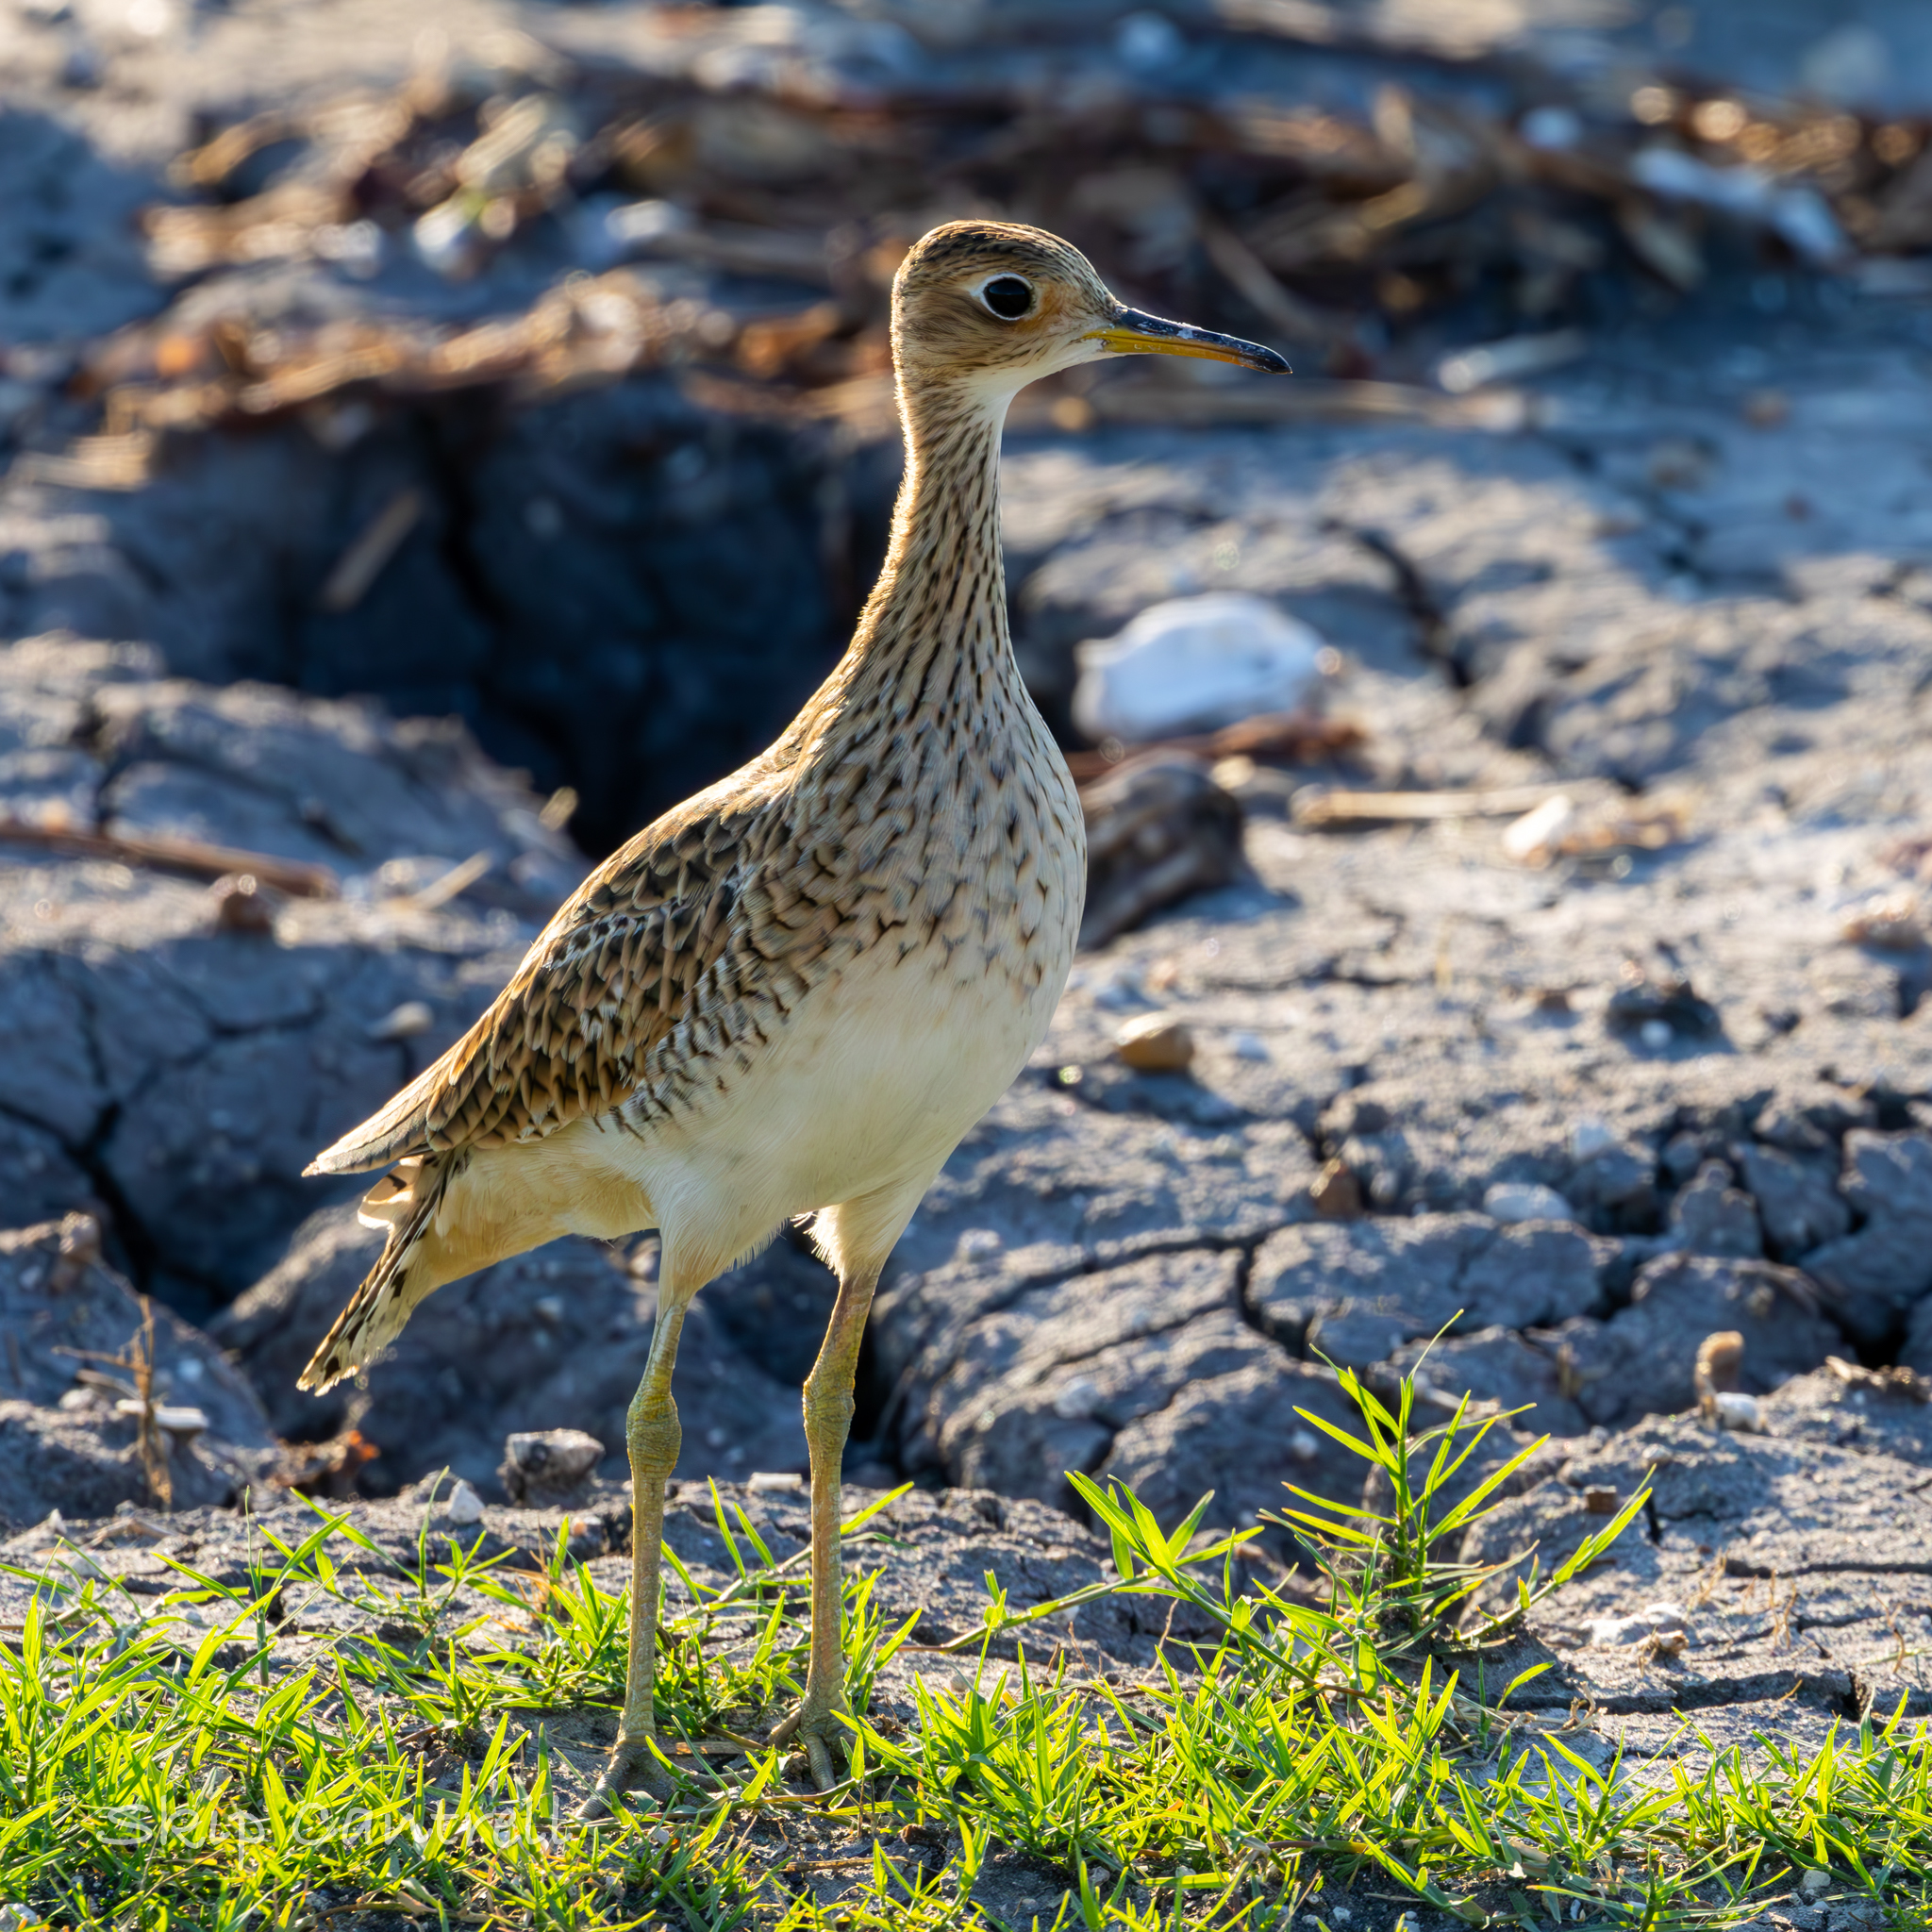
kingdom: Animalia
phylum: Chordata
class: Aves
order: Charadriiformes
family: Scolopacidae
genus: Bartramia
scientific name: Bartramia longicauda
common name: Upland sandpiper
